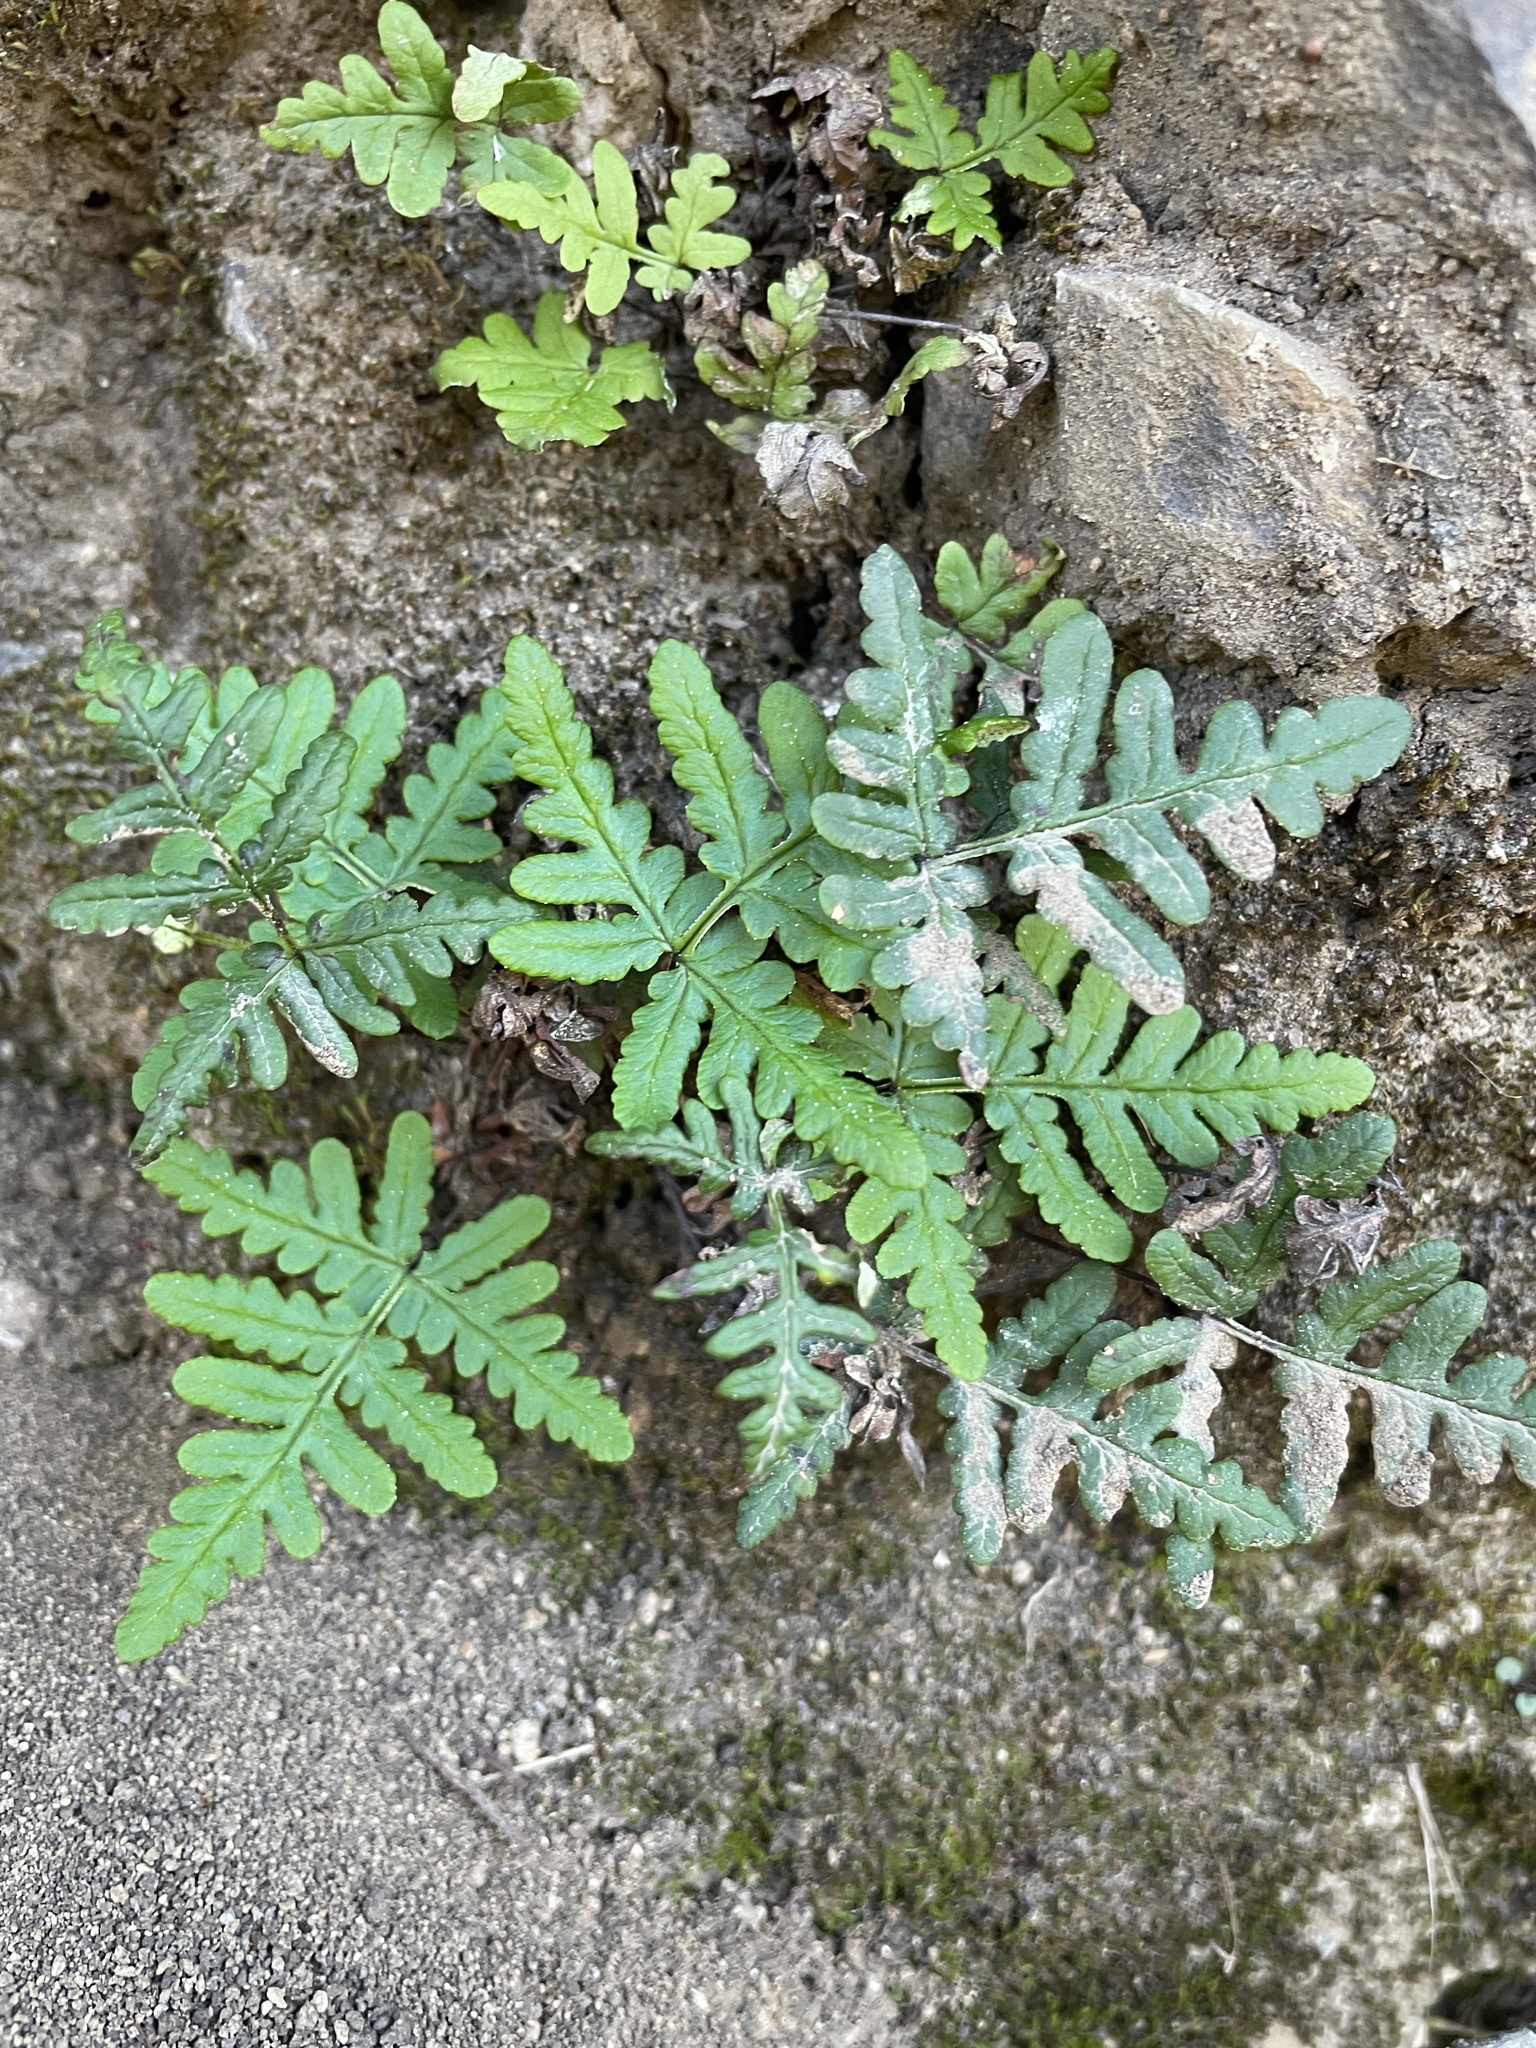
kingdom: Plantae
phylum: Tracheophyta
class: Polypodiopsida
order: Polypodiales
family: Pteridaceae
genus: Pentagramma
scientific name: Pentagramma triangularis
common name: Gold fern
